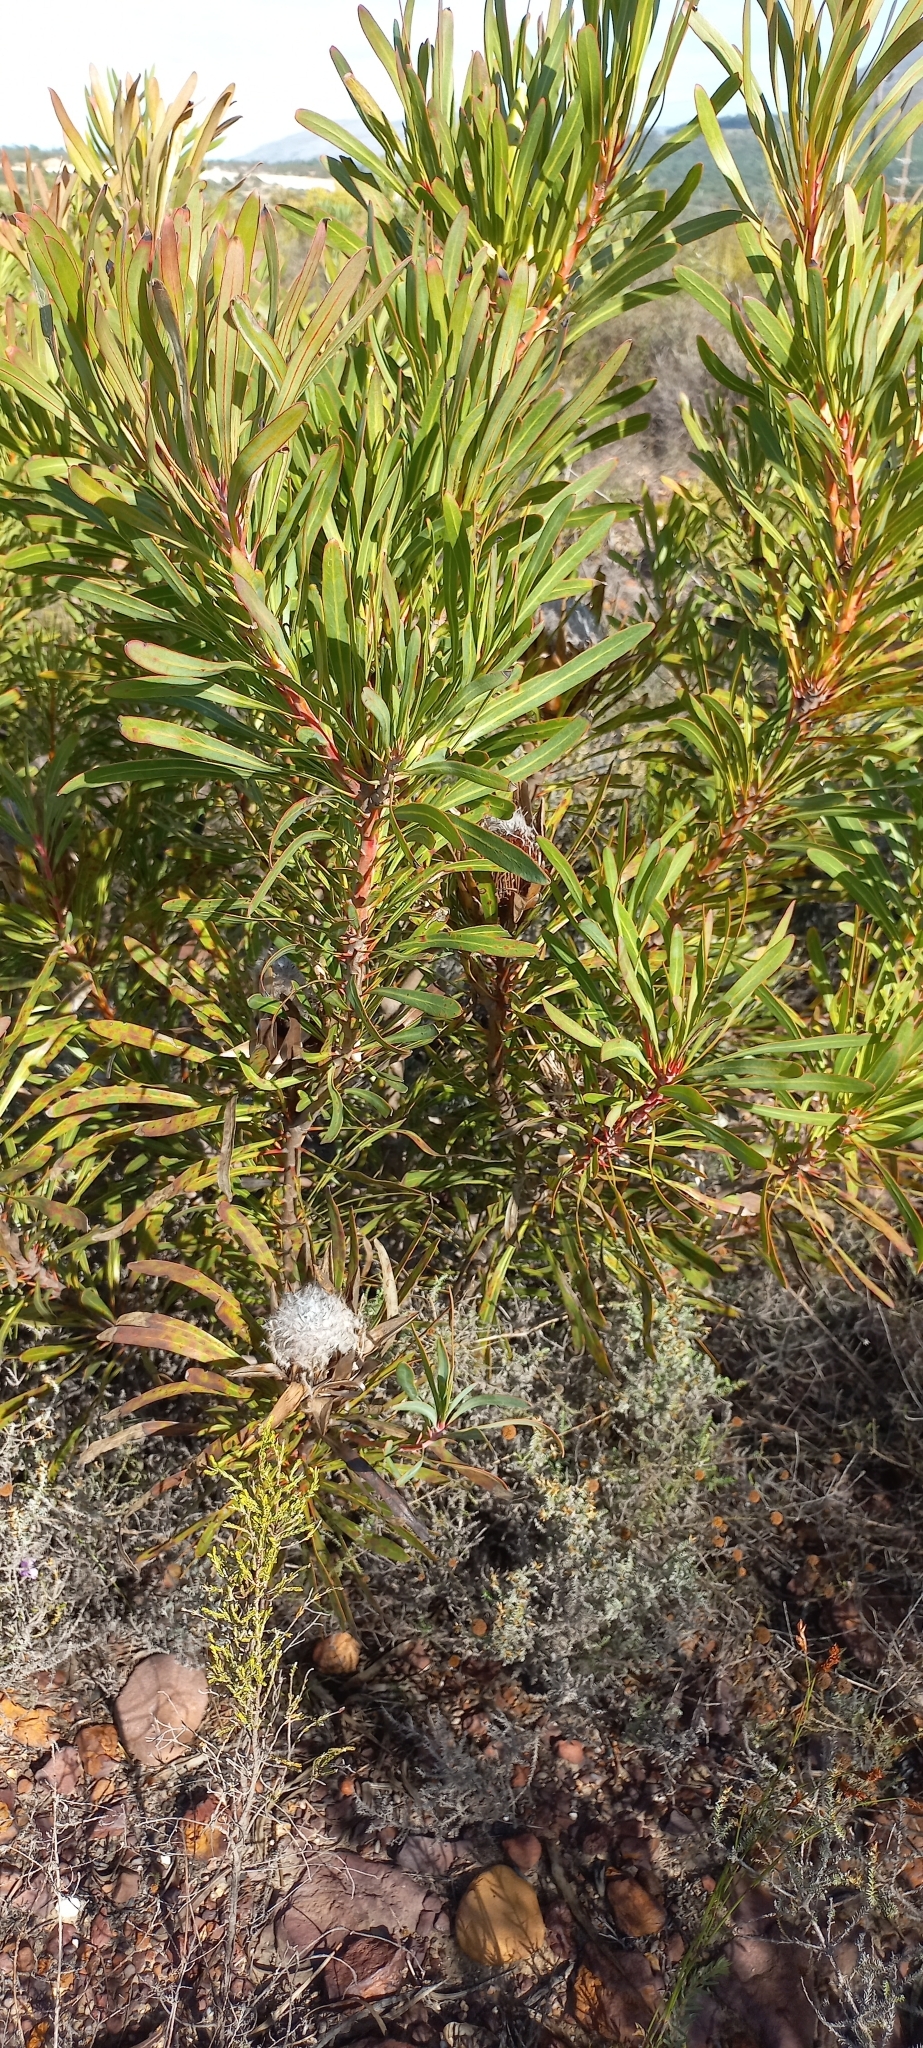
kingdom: Plantae
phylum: Tracheophyta
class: Magnoliopsida
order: Proteales
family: Proteaceae
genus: Protea
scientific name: Protea longifolia
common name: Long-leaf sugarbush
